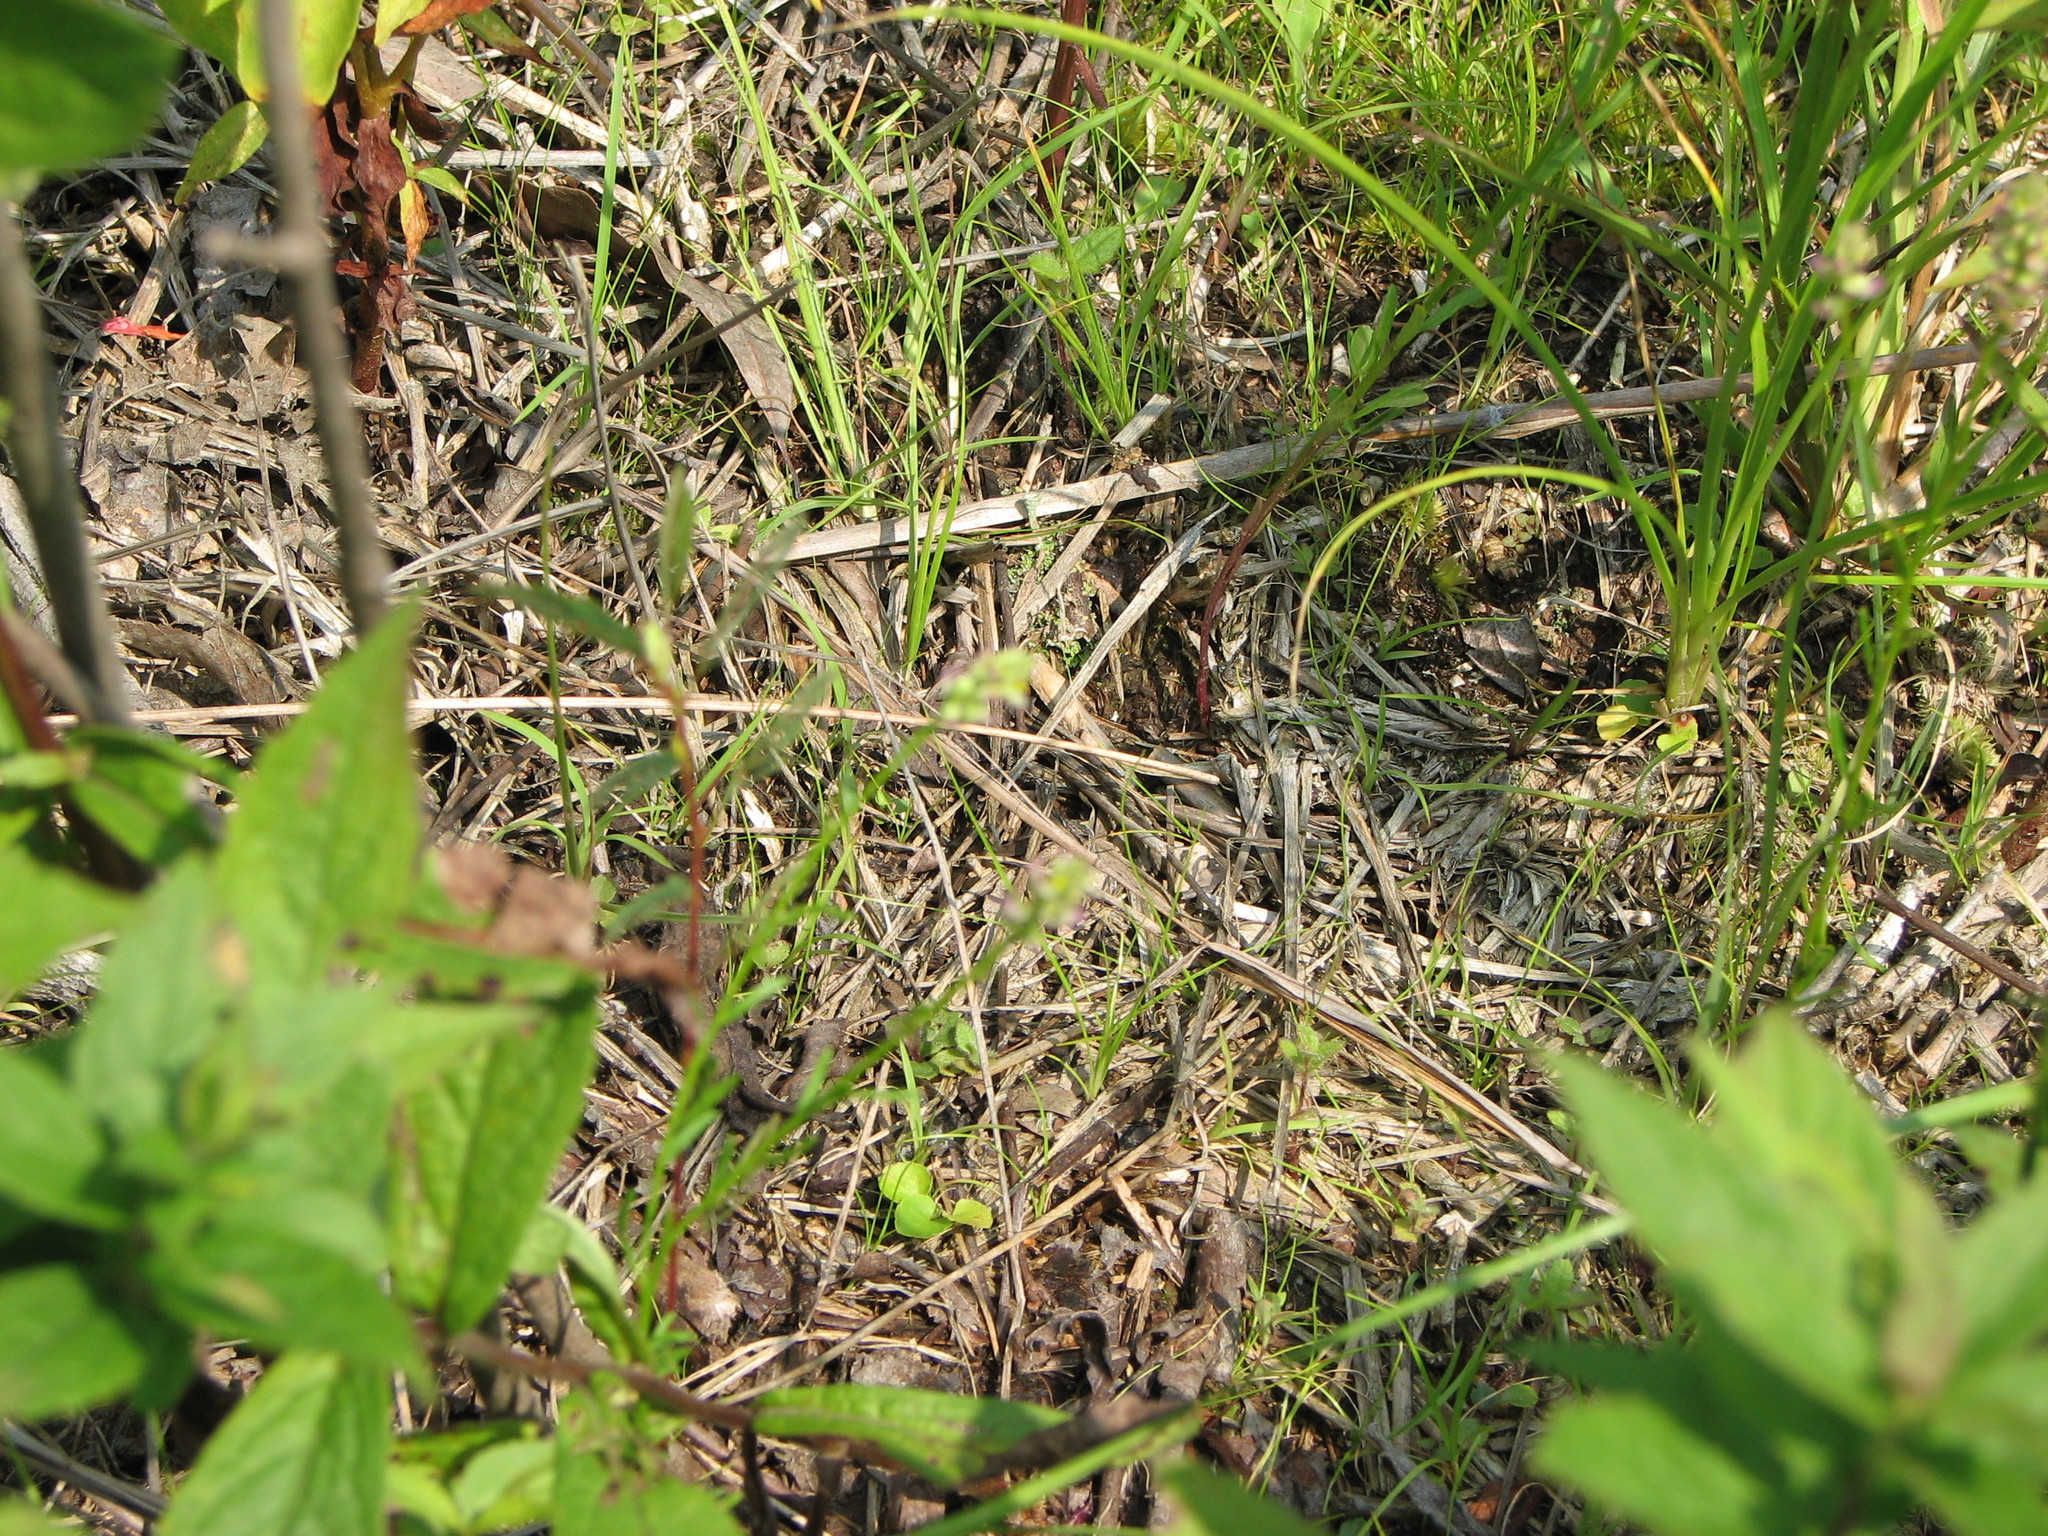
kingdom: Plantae
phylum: Tracheophyta
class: Magnoliopsida
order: Fabales
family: Polygalaceae
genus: Polygala
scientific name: Polygala nuttallii
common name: Nuttall's milkwort
